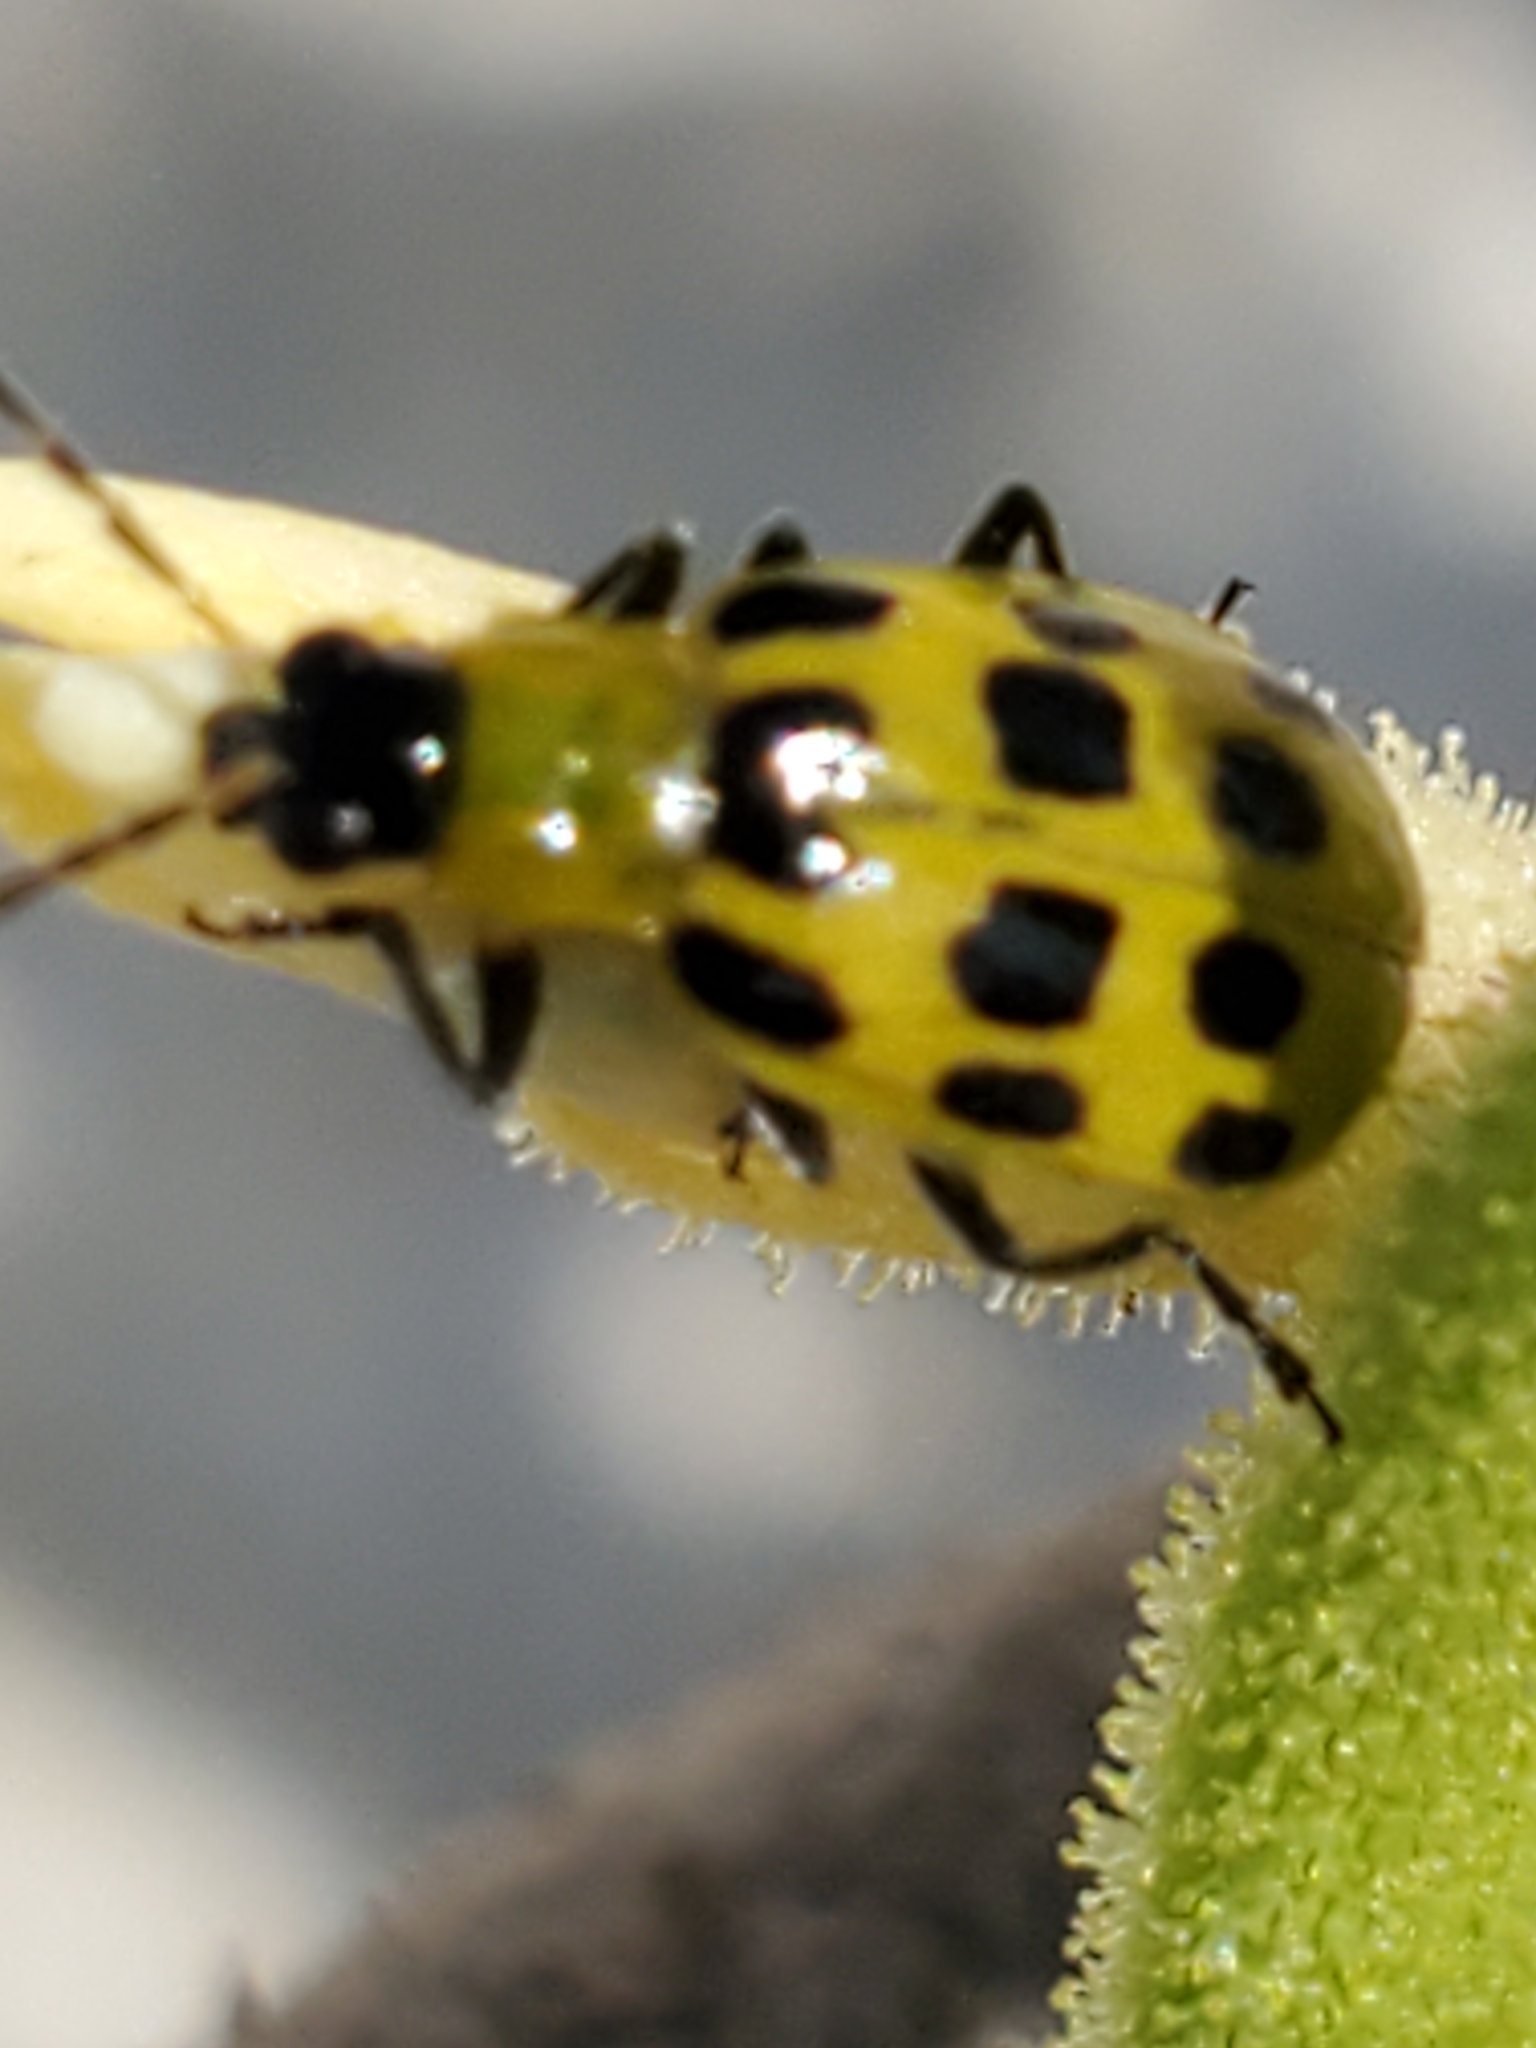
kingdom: Animalia
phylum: Arthropoda
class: Insecta
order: Coleoptera
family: Chrysomelidae
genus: Diabrotica
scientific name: Diabrotica undecimpunctata
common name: Spotted cucumber beetle
